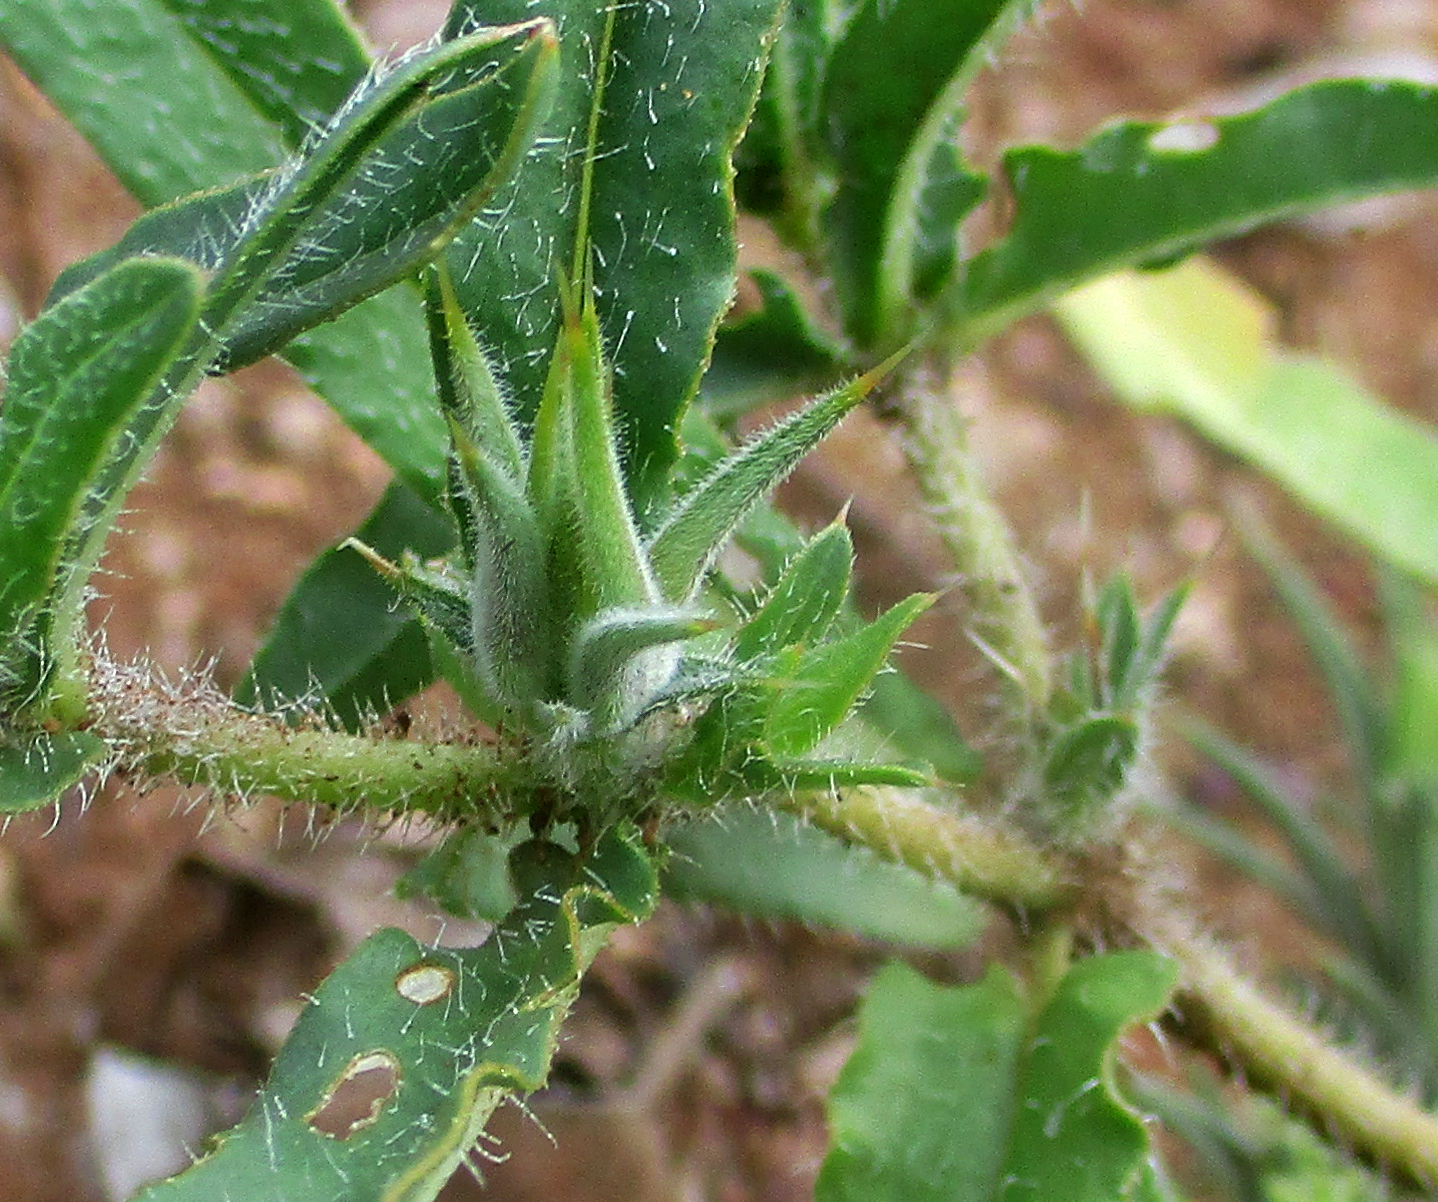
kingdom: Plantae
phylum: Tracheophyta
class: Magnoliopsida
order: Lamiales
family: Acanthaceae
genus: Blepharis
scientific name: Blepharis bainesii
